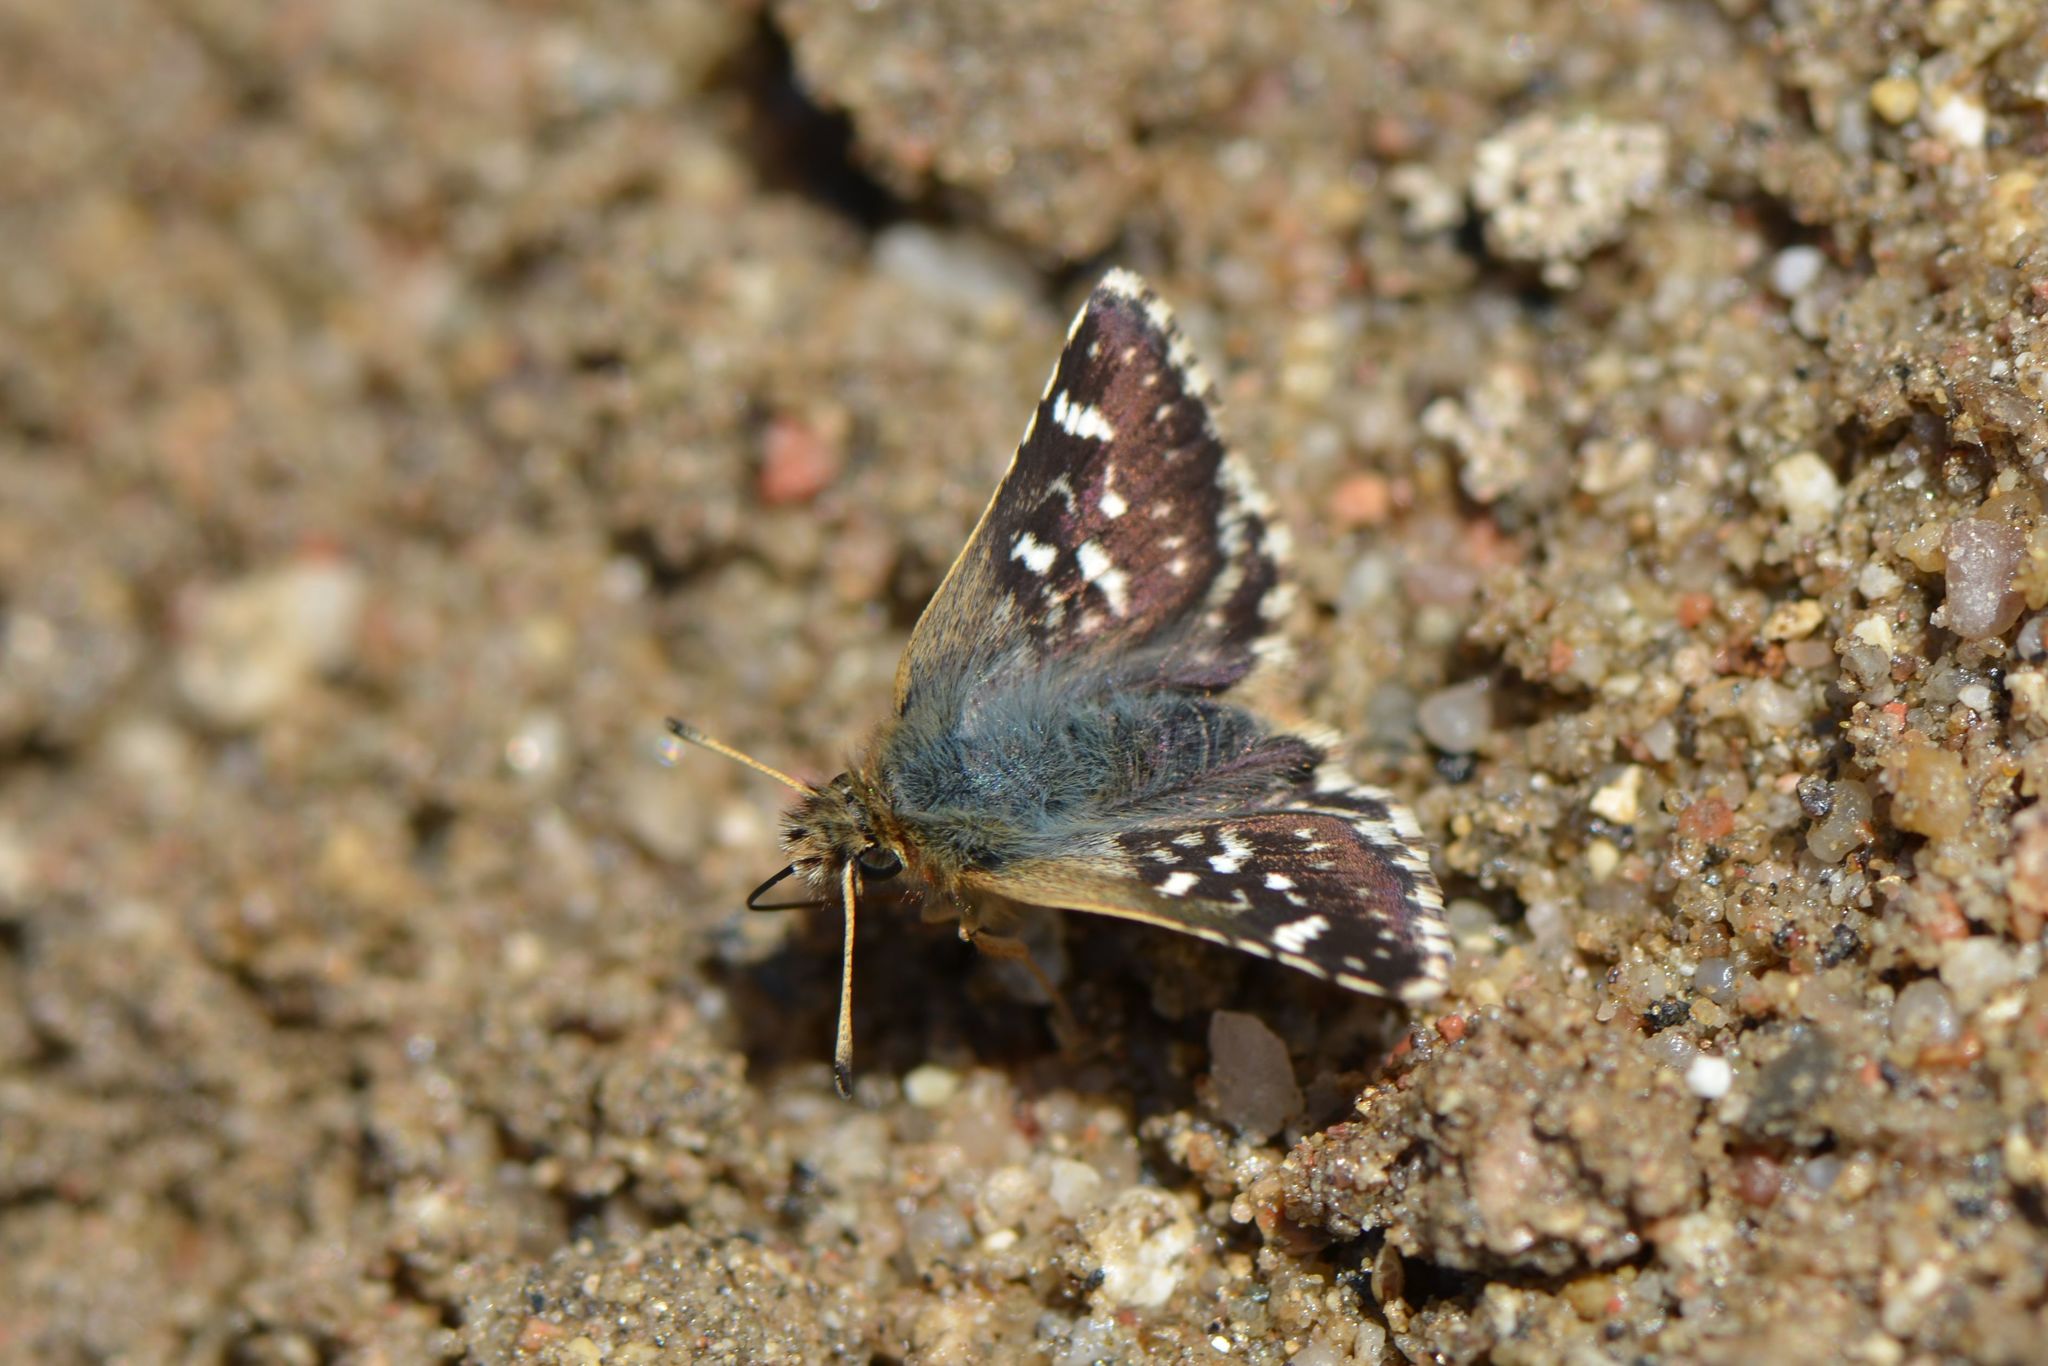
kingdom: Animalia
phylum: Arthropoda
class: Insecta
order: Lepidoptera
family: Hesperiidae
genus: Spialia
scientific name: Spialia sertorius
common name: Red underwing skipper
